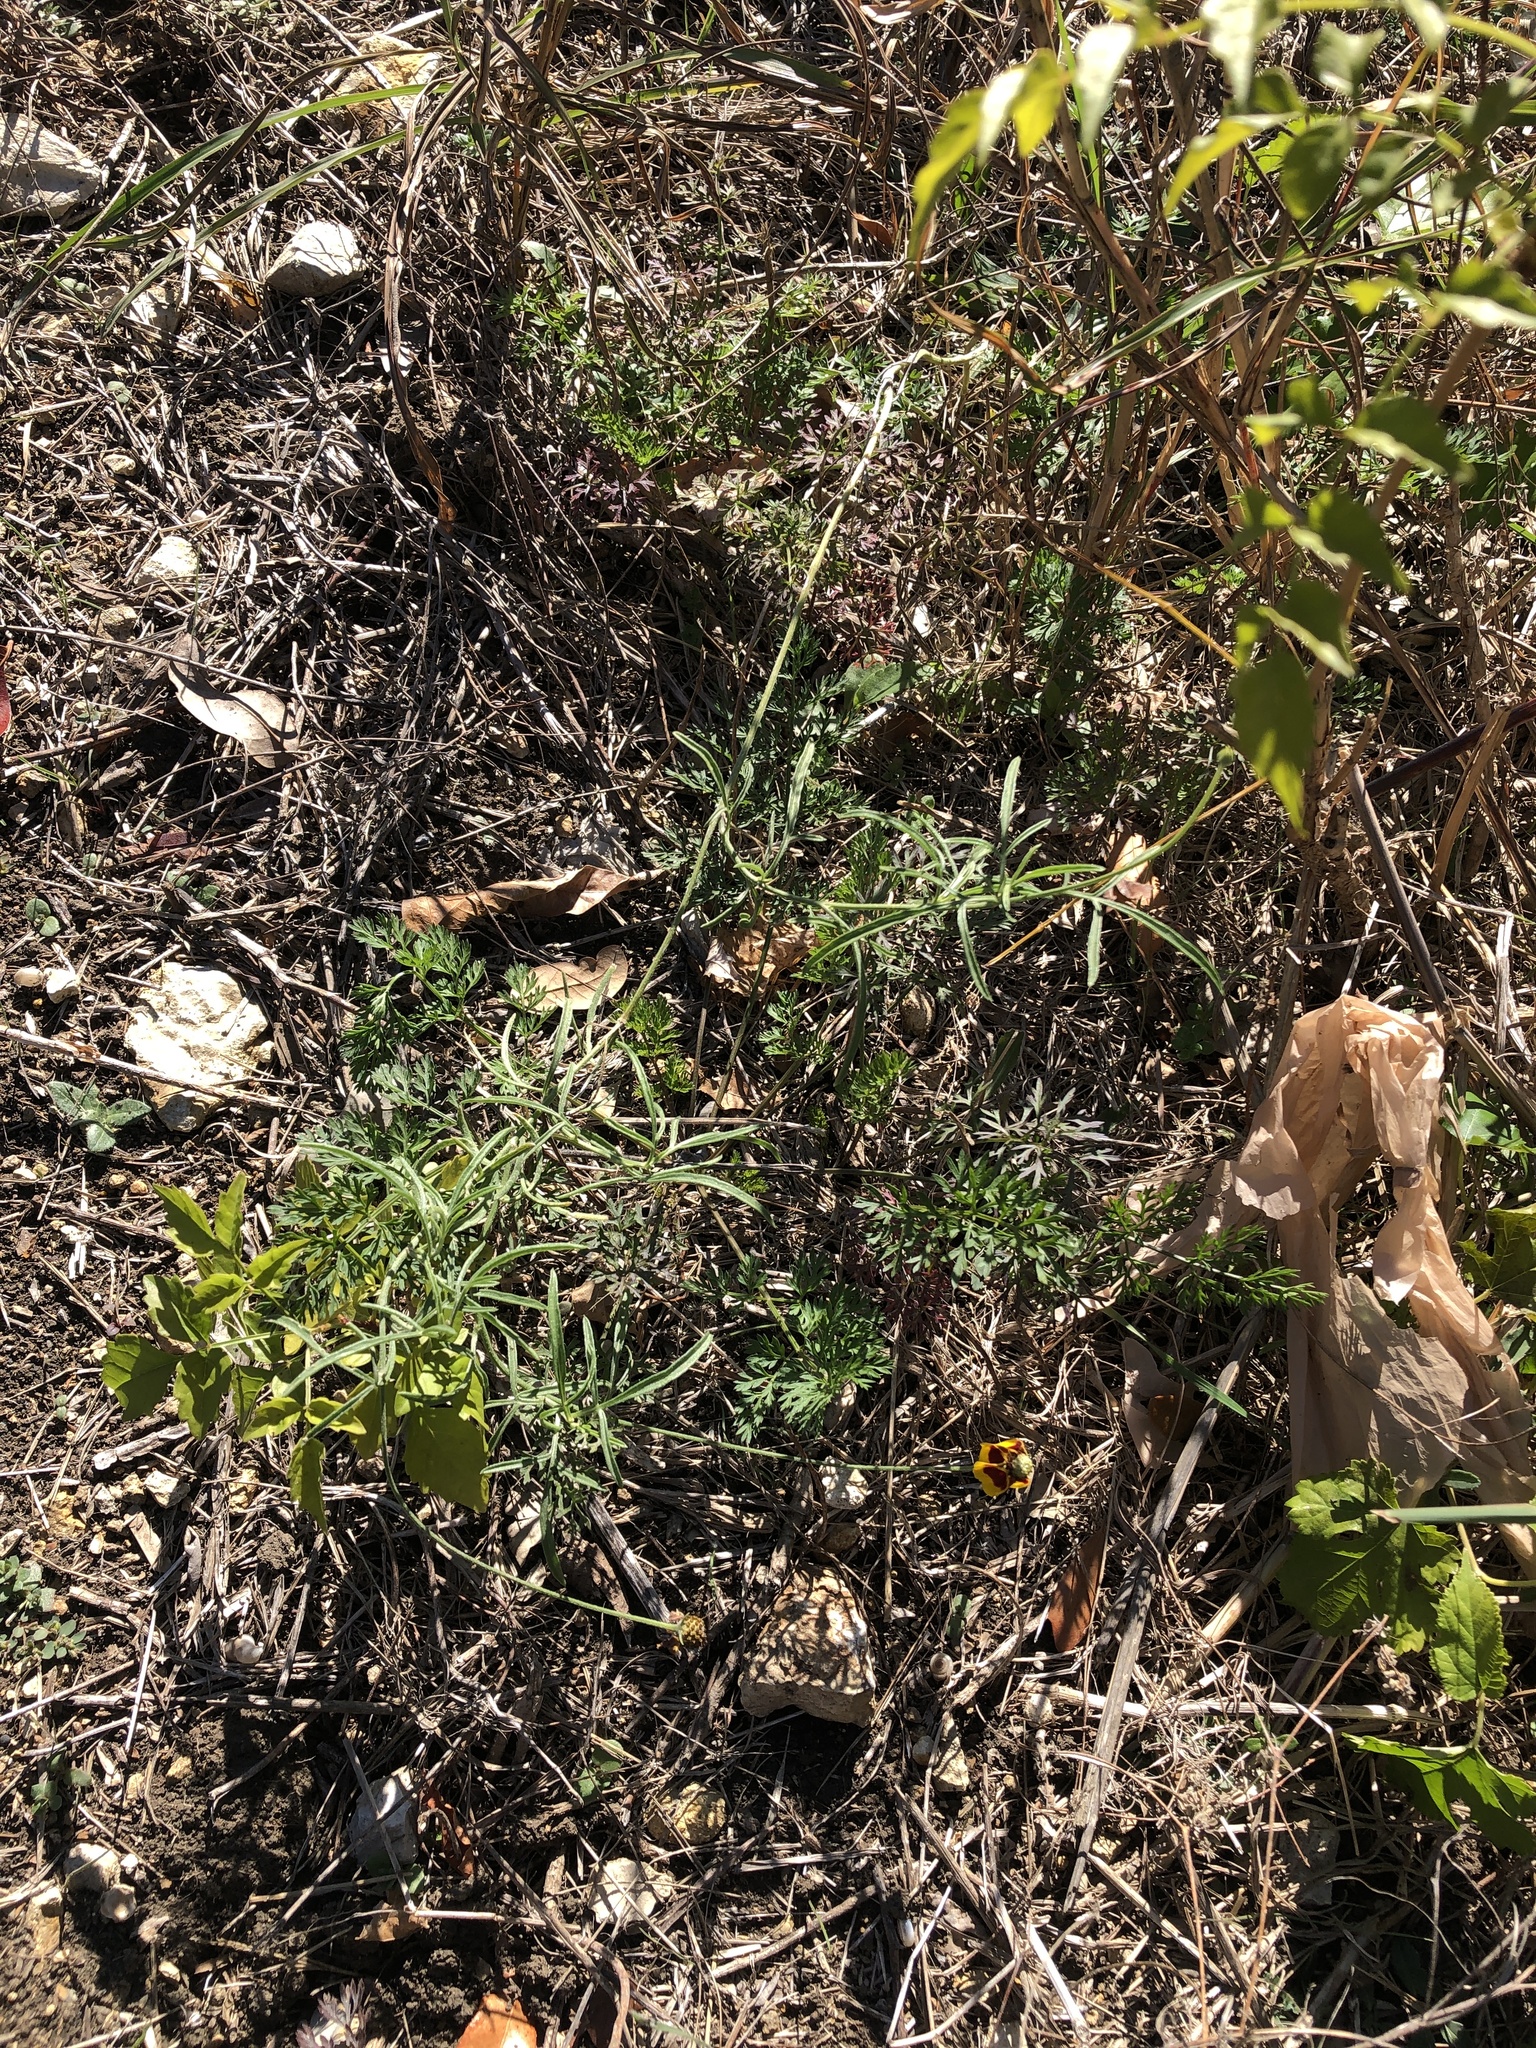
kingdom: Plantae
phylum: Tracheophyta
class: Magnoliopsida
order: Asterales
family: Asteraceae
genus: Ratibida
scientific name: Ratibida columnifera
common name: Prairie coneflower
